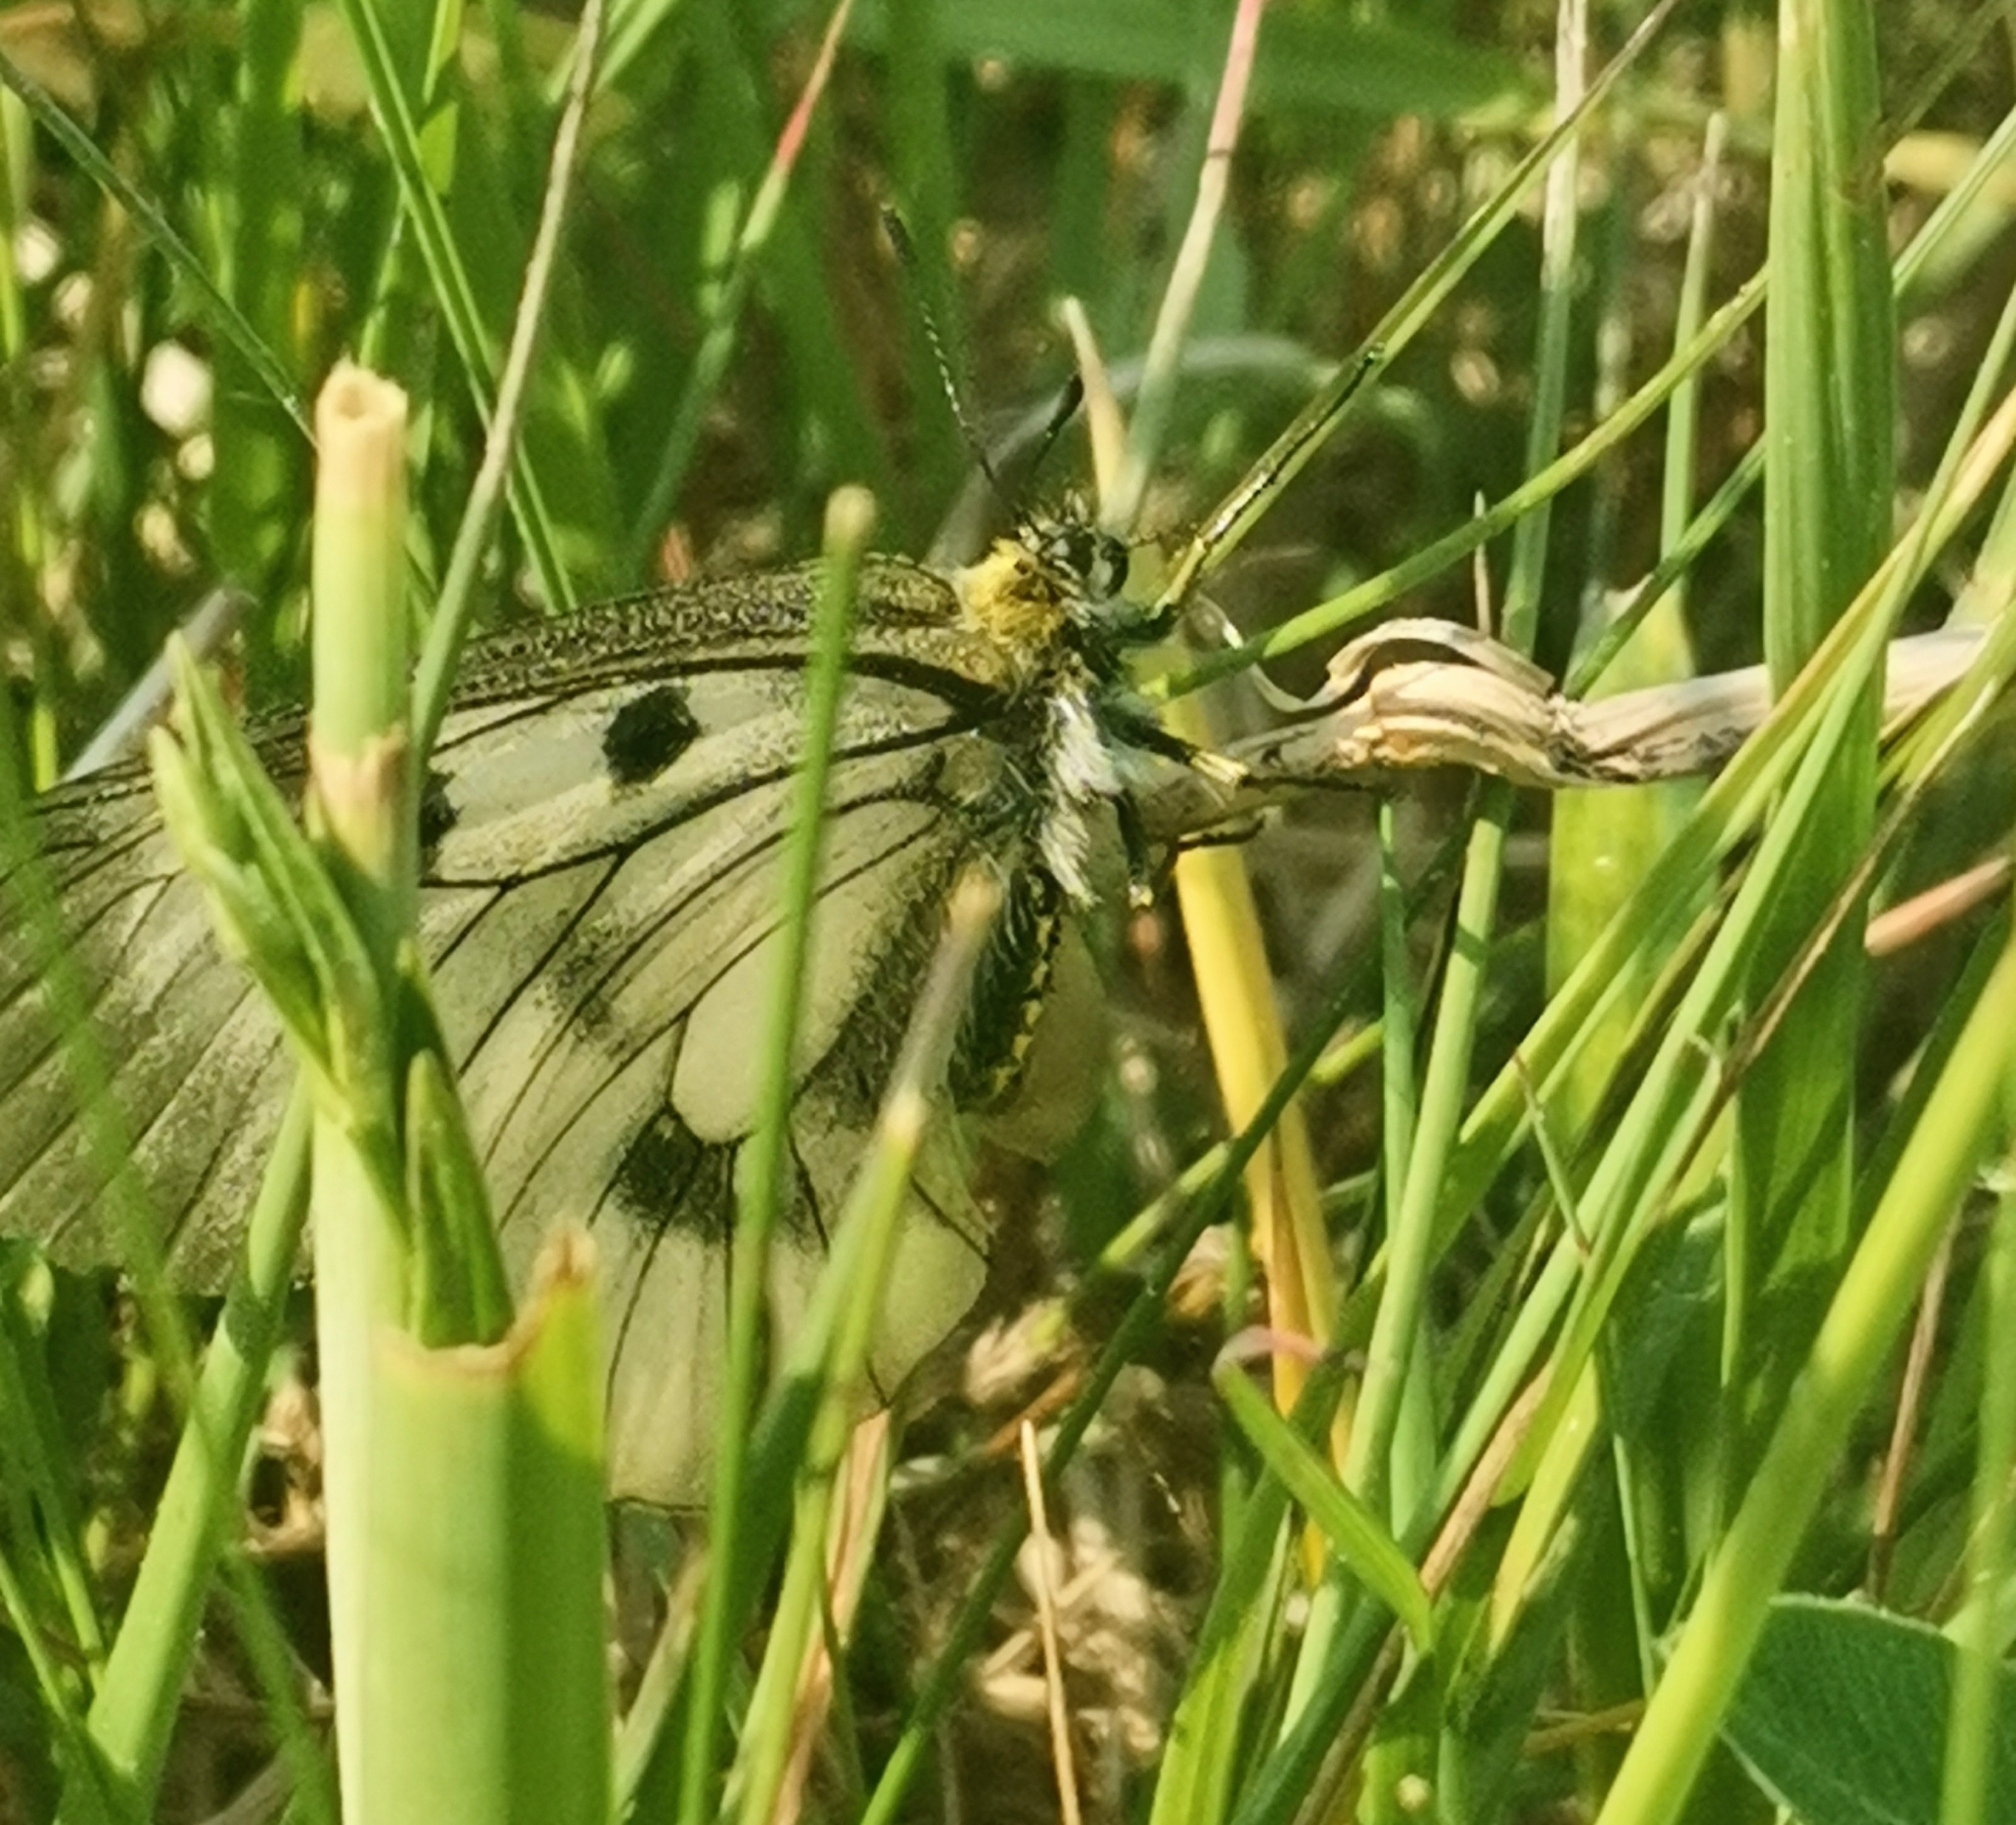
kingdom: Animalia
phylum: Arthropoda
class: Insecta
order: Lepidoptera
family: Papilionidae
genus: Parnassius
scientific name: Parnassius mnemosyne
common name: Clouded apollo
